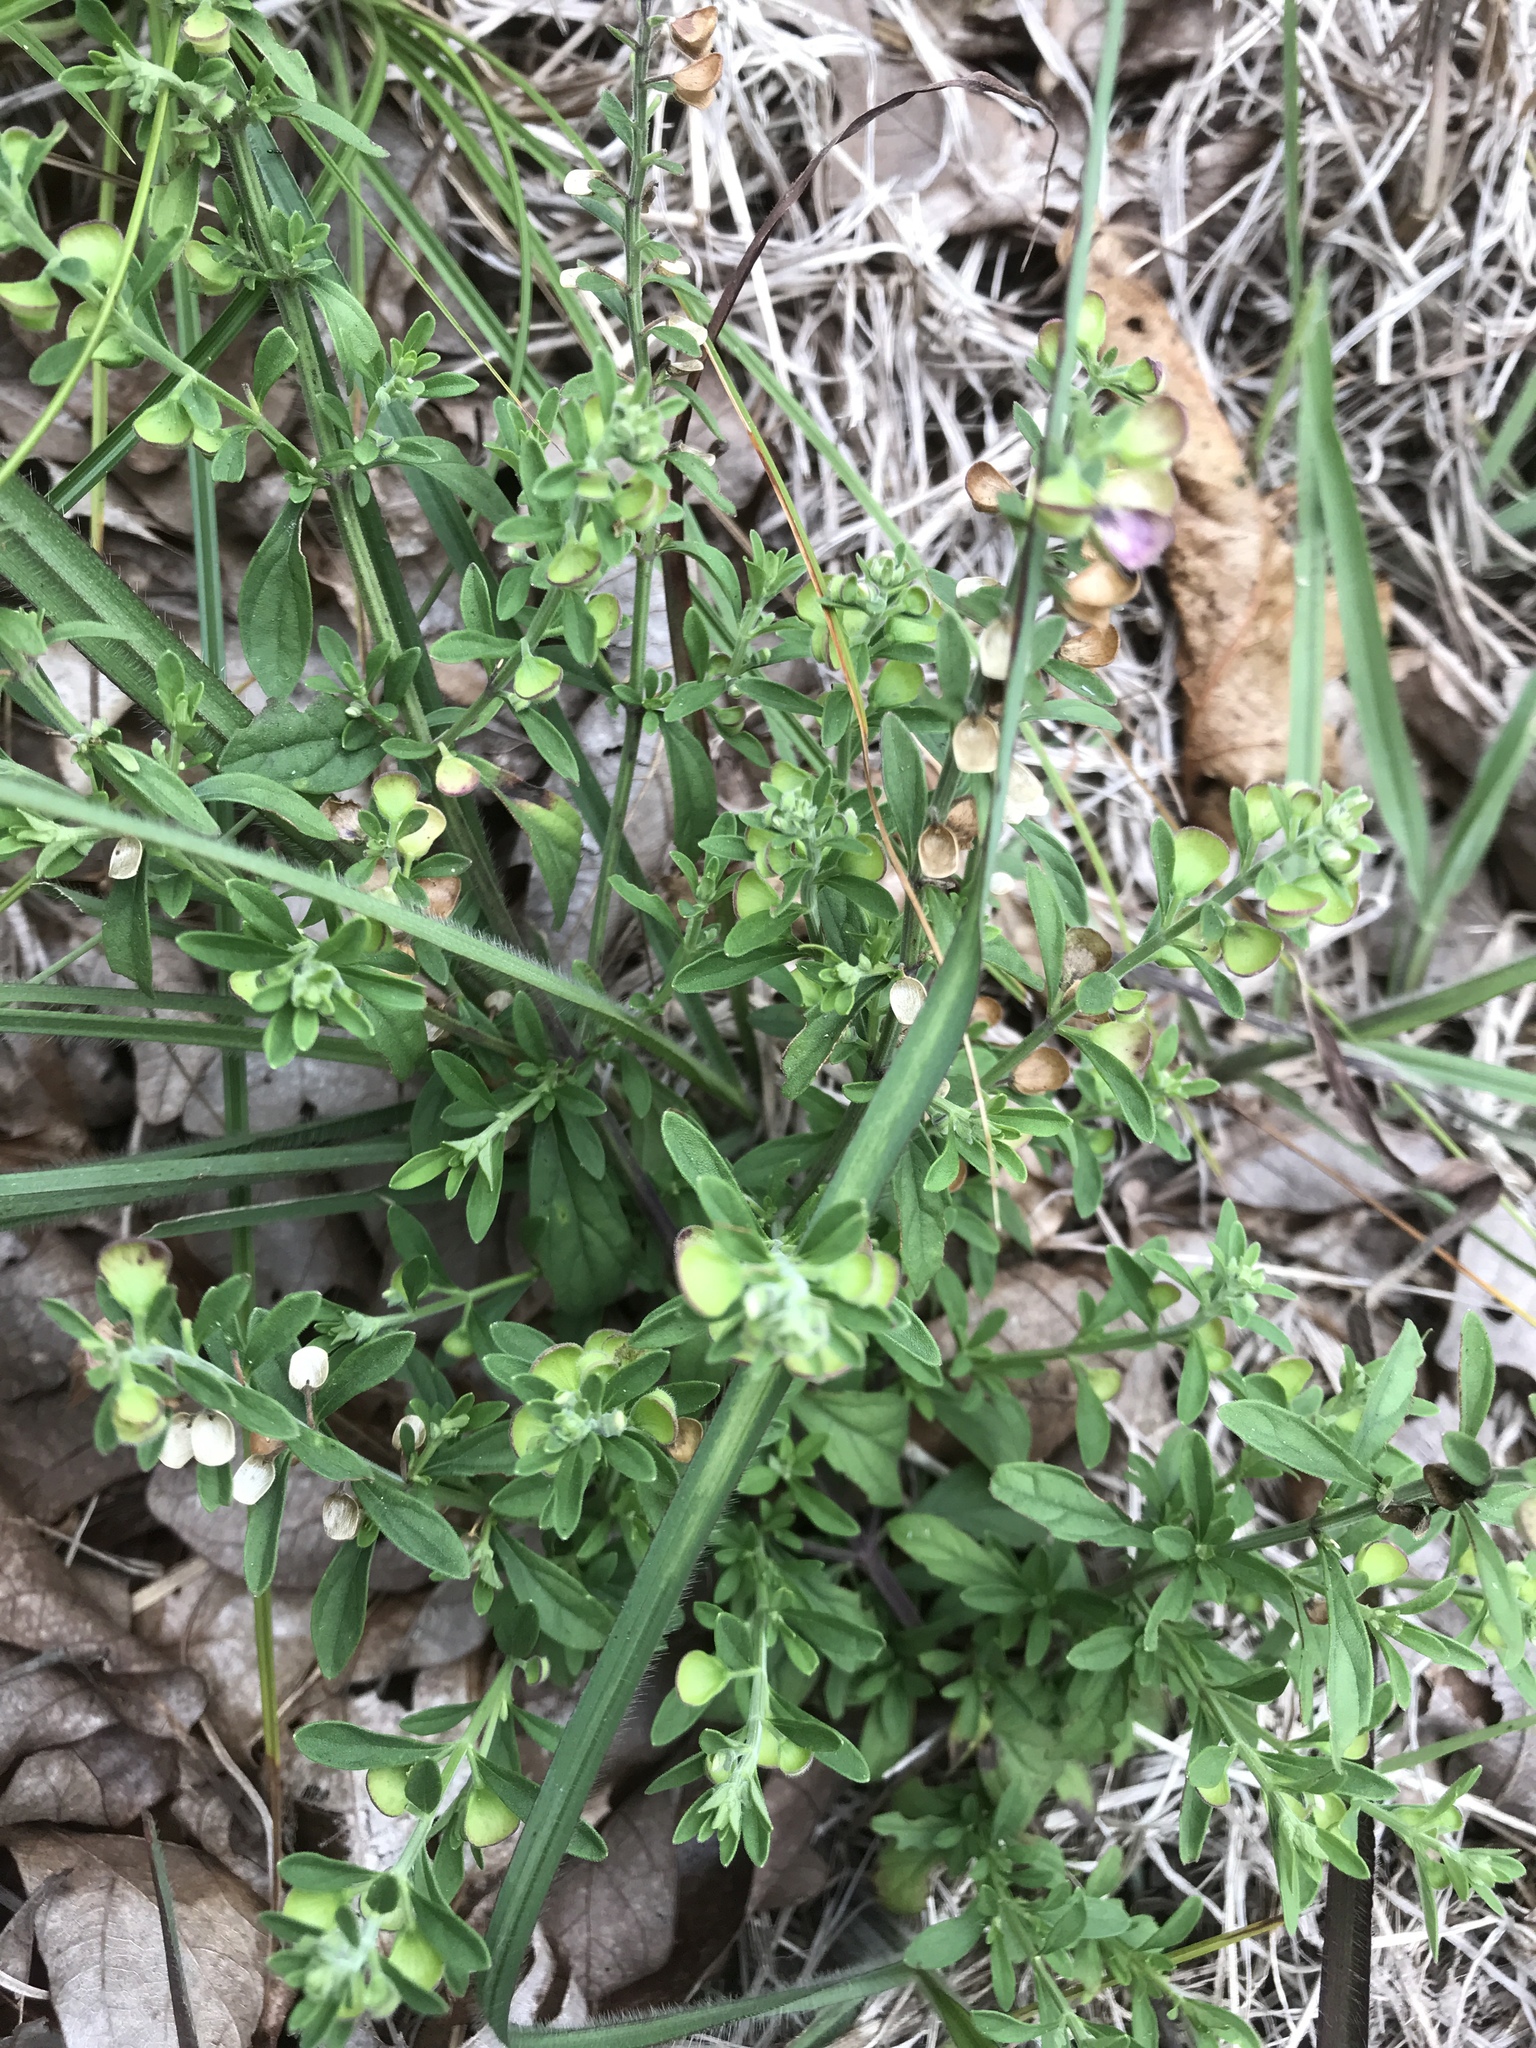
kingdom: Plantae
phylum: Tracheophyta
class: Magnoliopsida
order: Lamiales
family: Lamiaceae
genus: Scutellaria
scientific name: Scutellaria integrifolia
